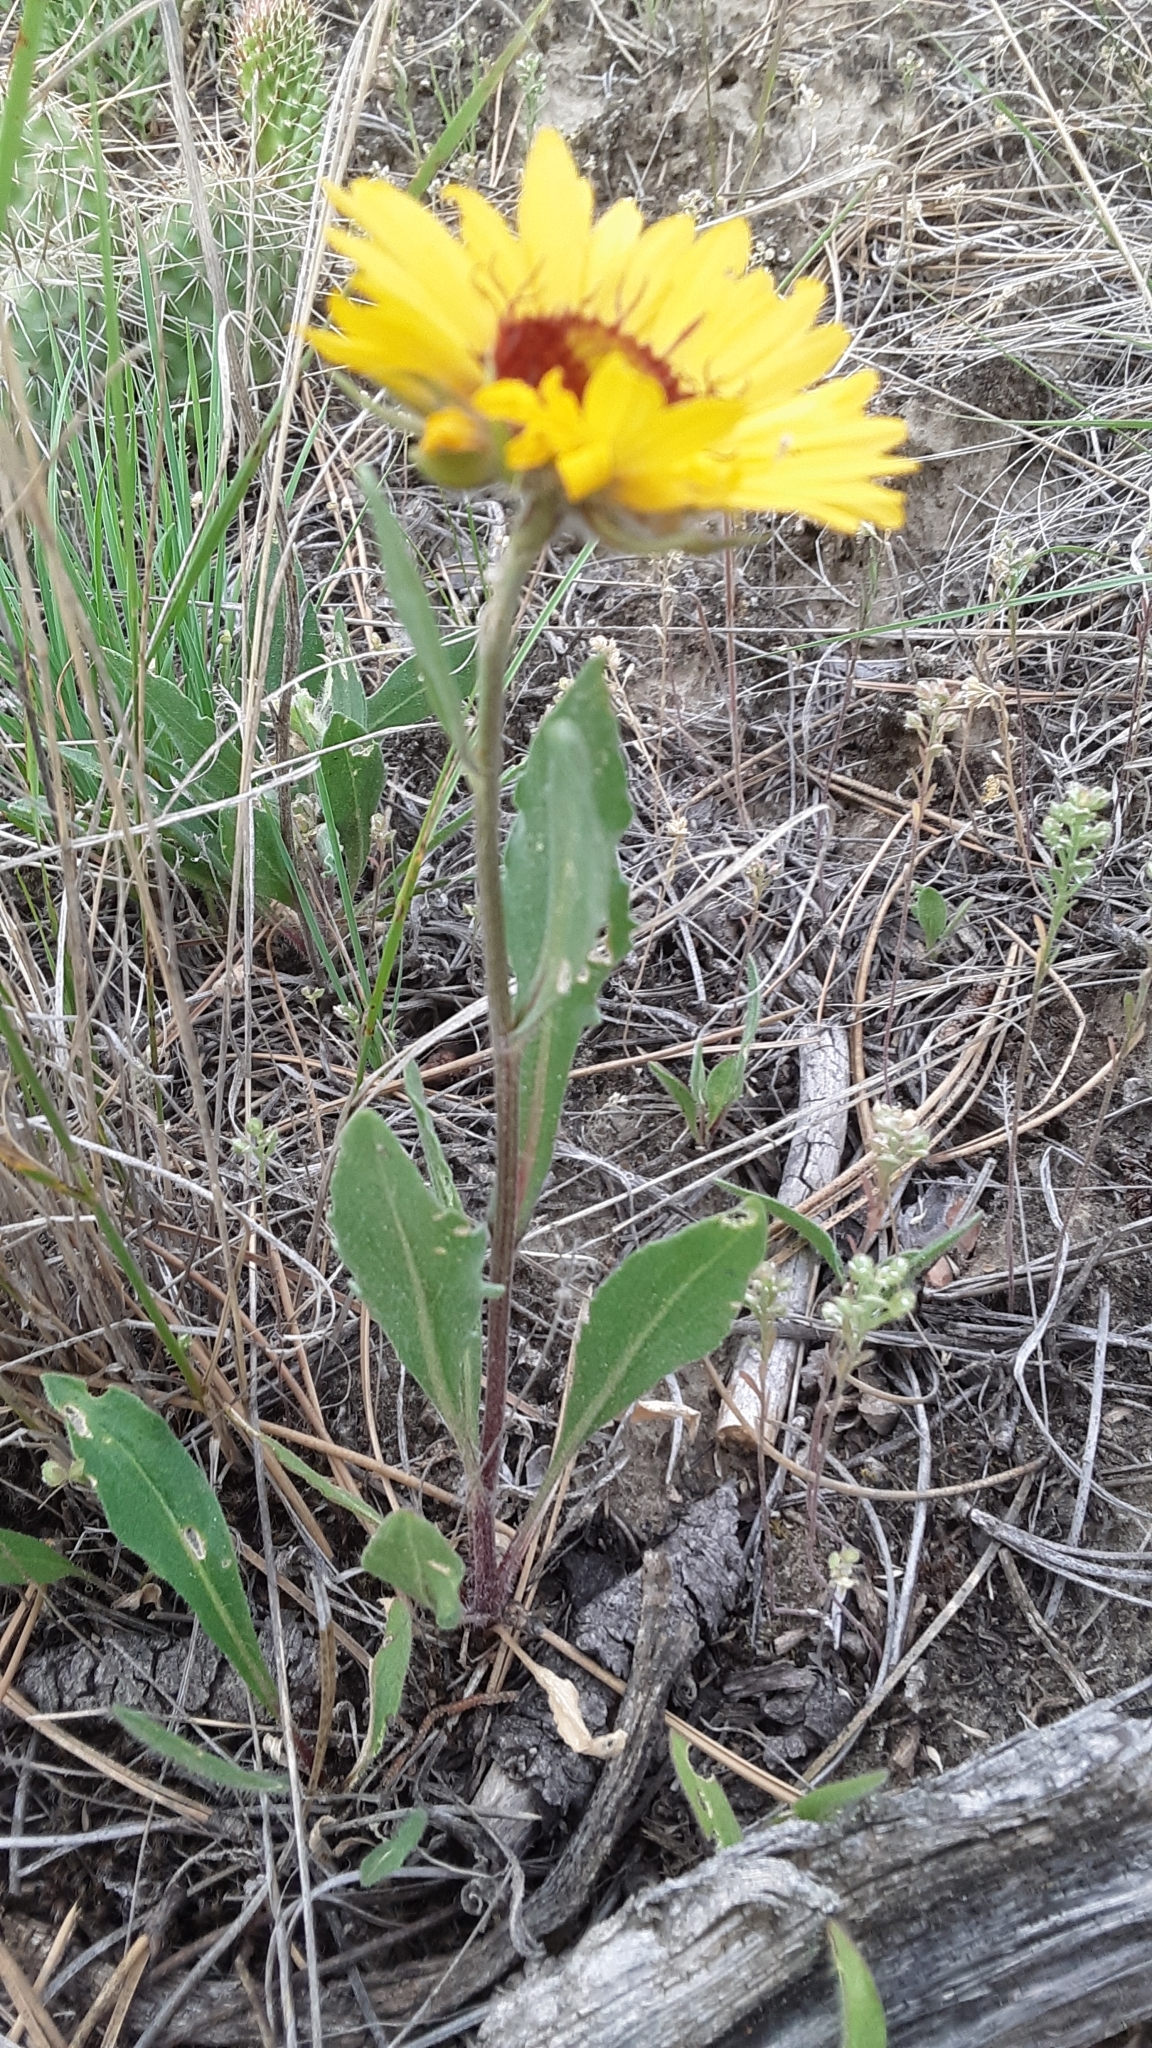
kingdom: Plantae
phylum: Tracheophyta
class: Magnoliopsida
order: Asterales
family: Asteraceae
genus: Gaillardia
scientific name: Gaillardia aristata
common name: Blanket-flower
